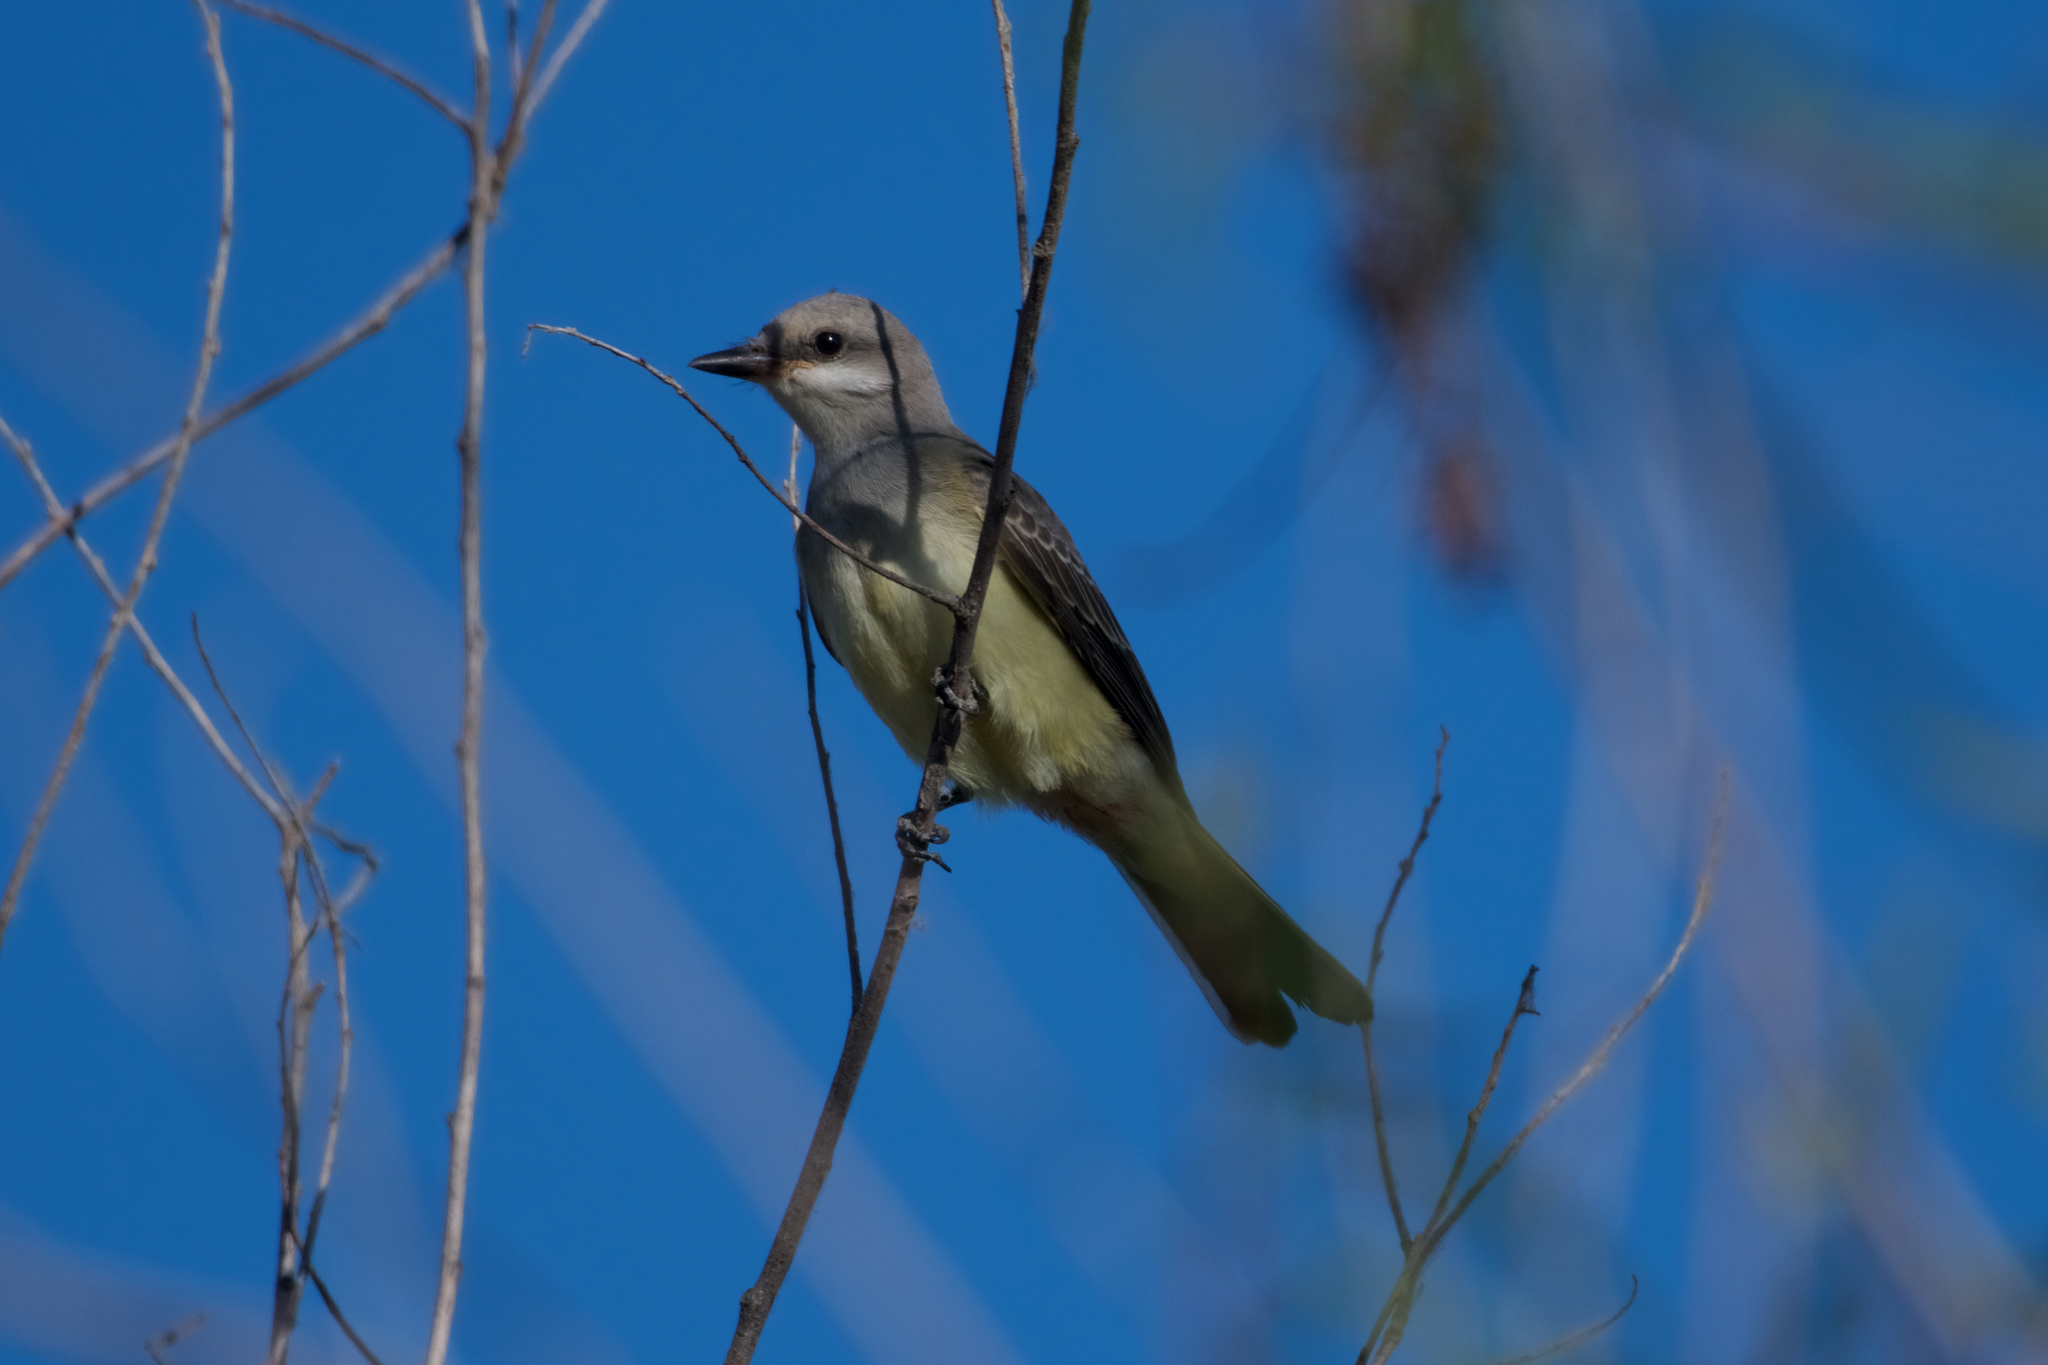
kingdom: Animalia
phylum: Chordata
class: Aves
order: Passeriformes
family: Tyrannidae
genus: Tyrannus
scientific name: Tyrannus verticalis
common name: Western kingbird
